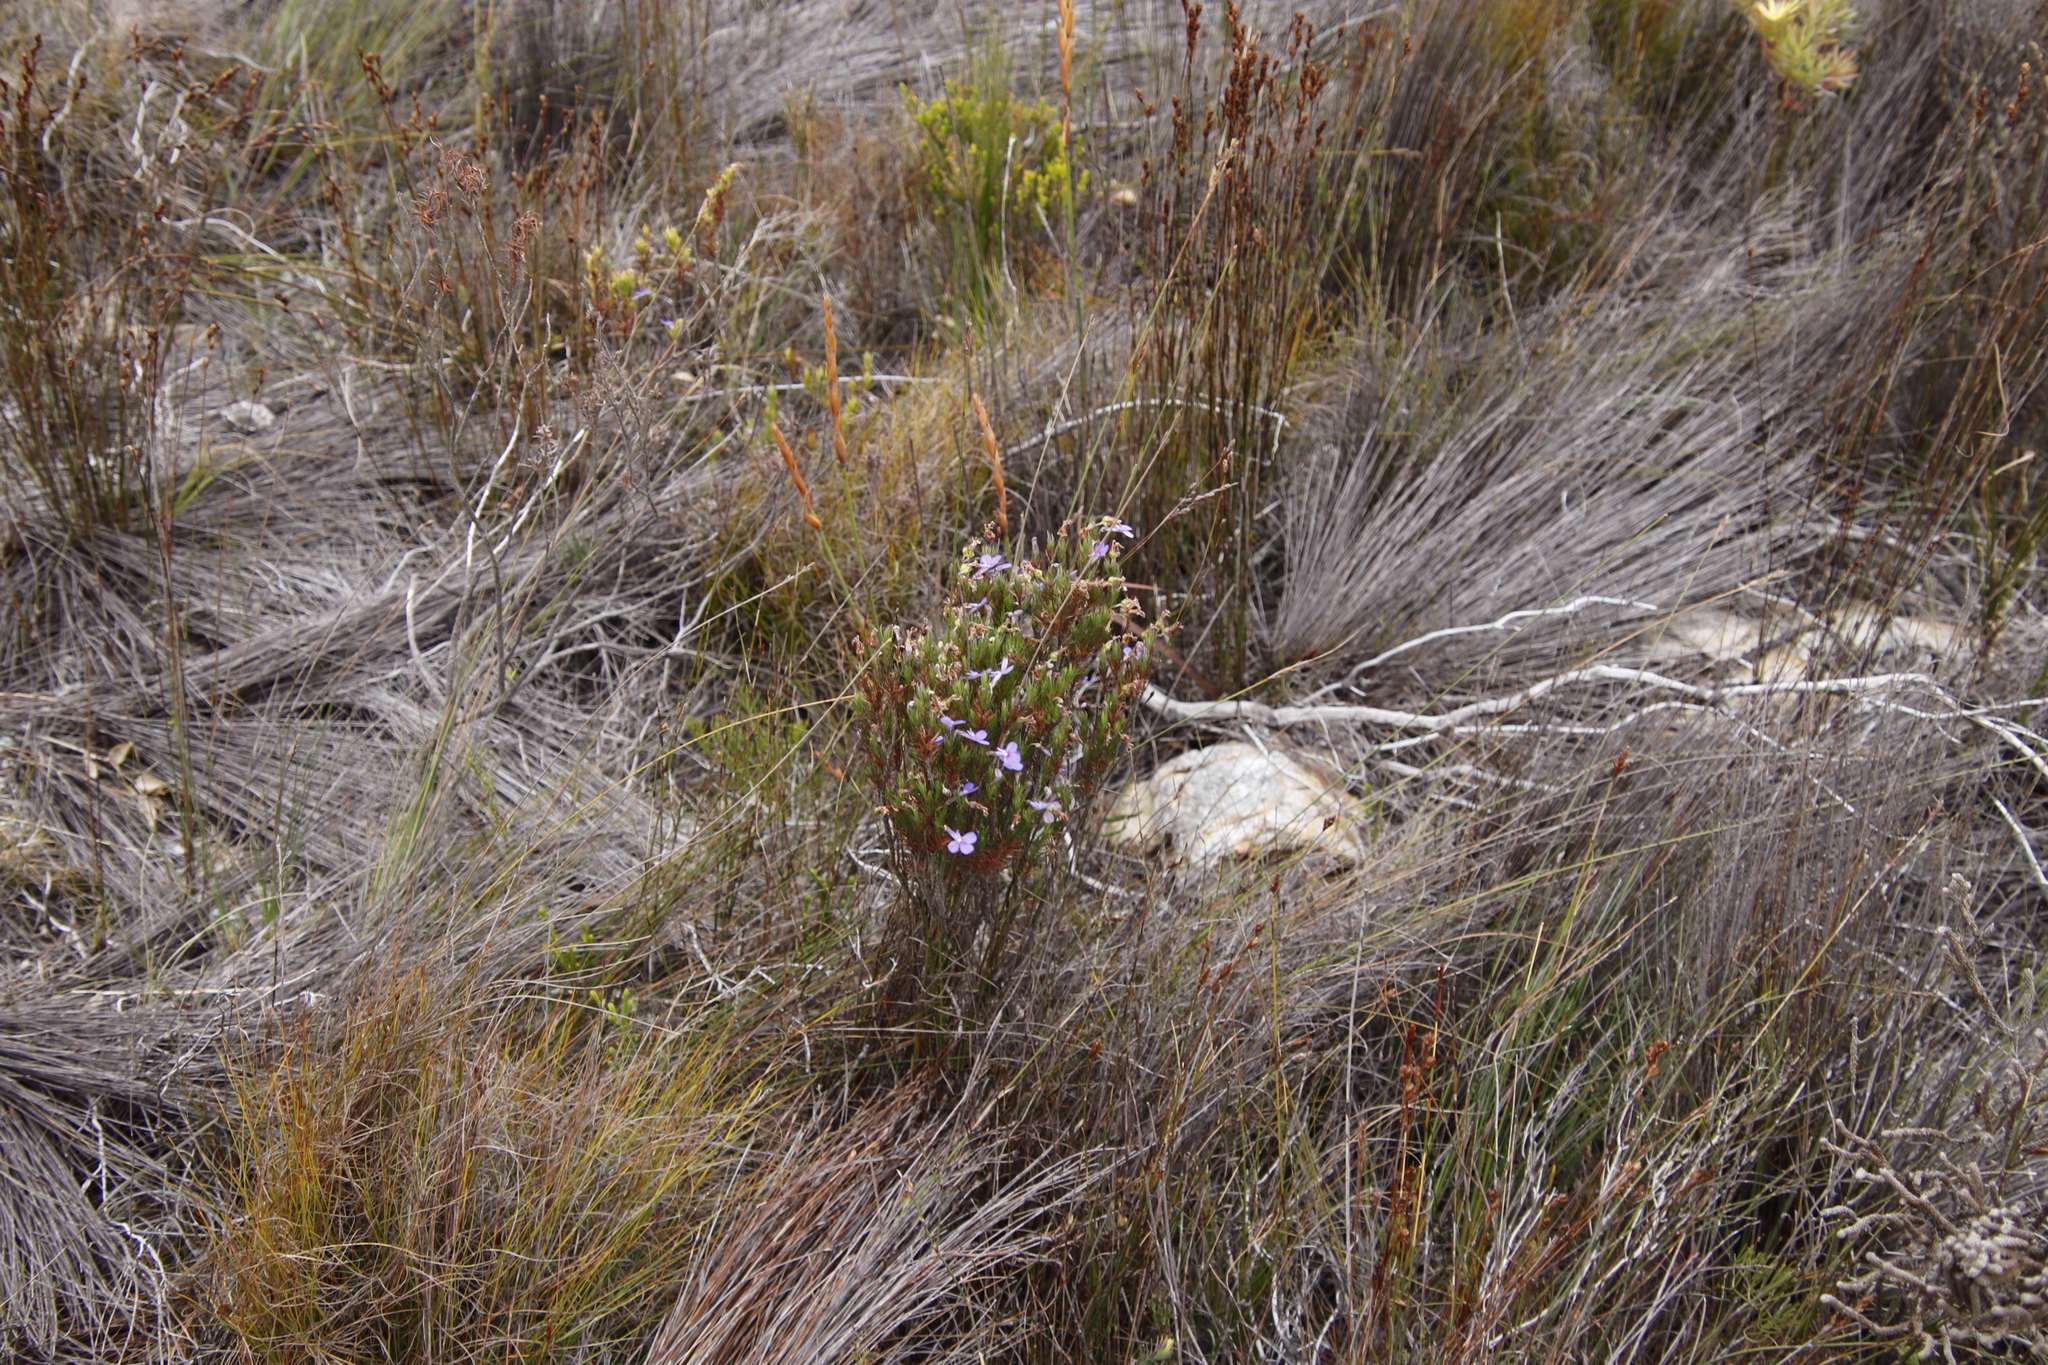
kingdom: Plantae
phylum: Tracheophyta
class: Magnoliopsida
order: Asterales
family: Campanulaceae
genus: Lobelia
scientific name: Lobelia pinifolia
